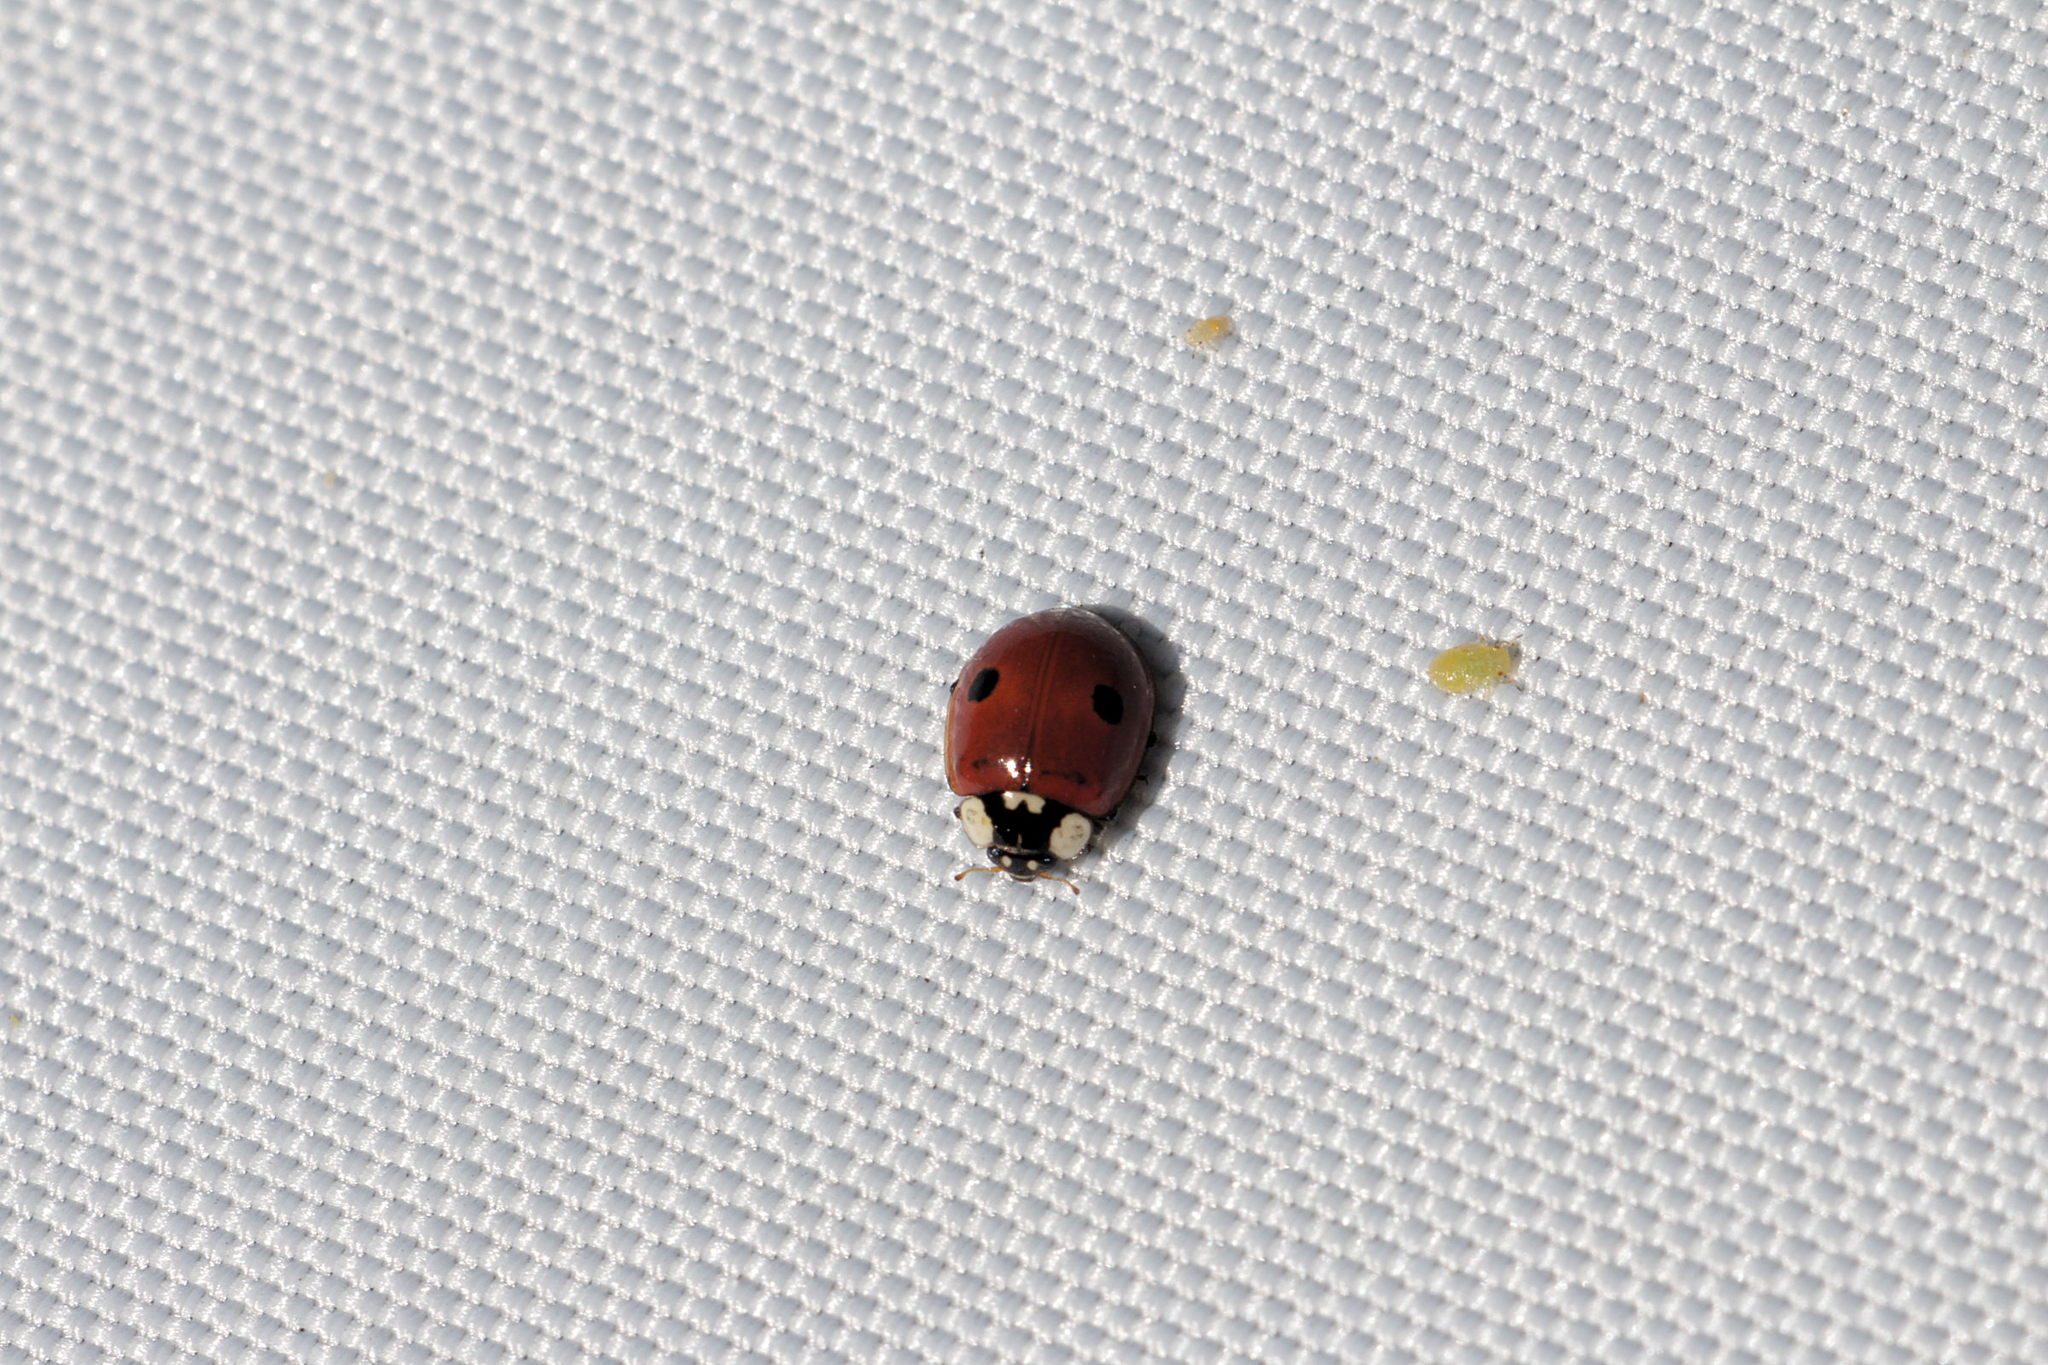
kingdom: Animalia
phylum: Arthropoda
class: Insecta
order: Coleoptera
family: Coccinellidae
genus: Adalia
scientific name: Adalia bipunctata
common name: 2-spot ladybird
